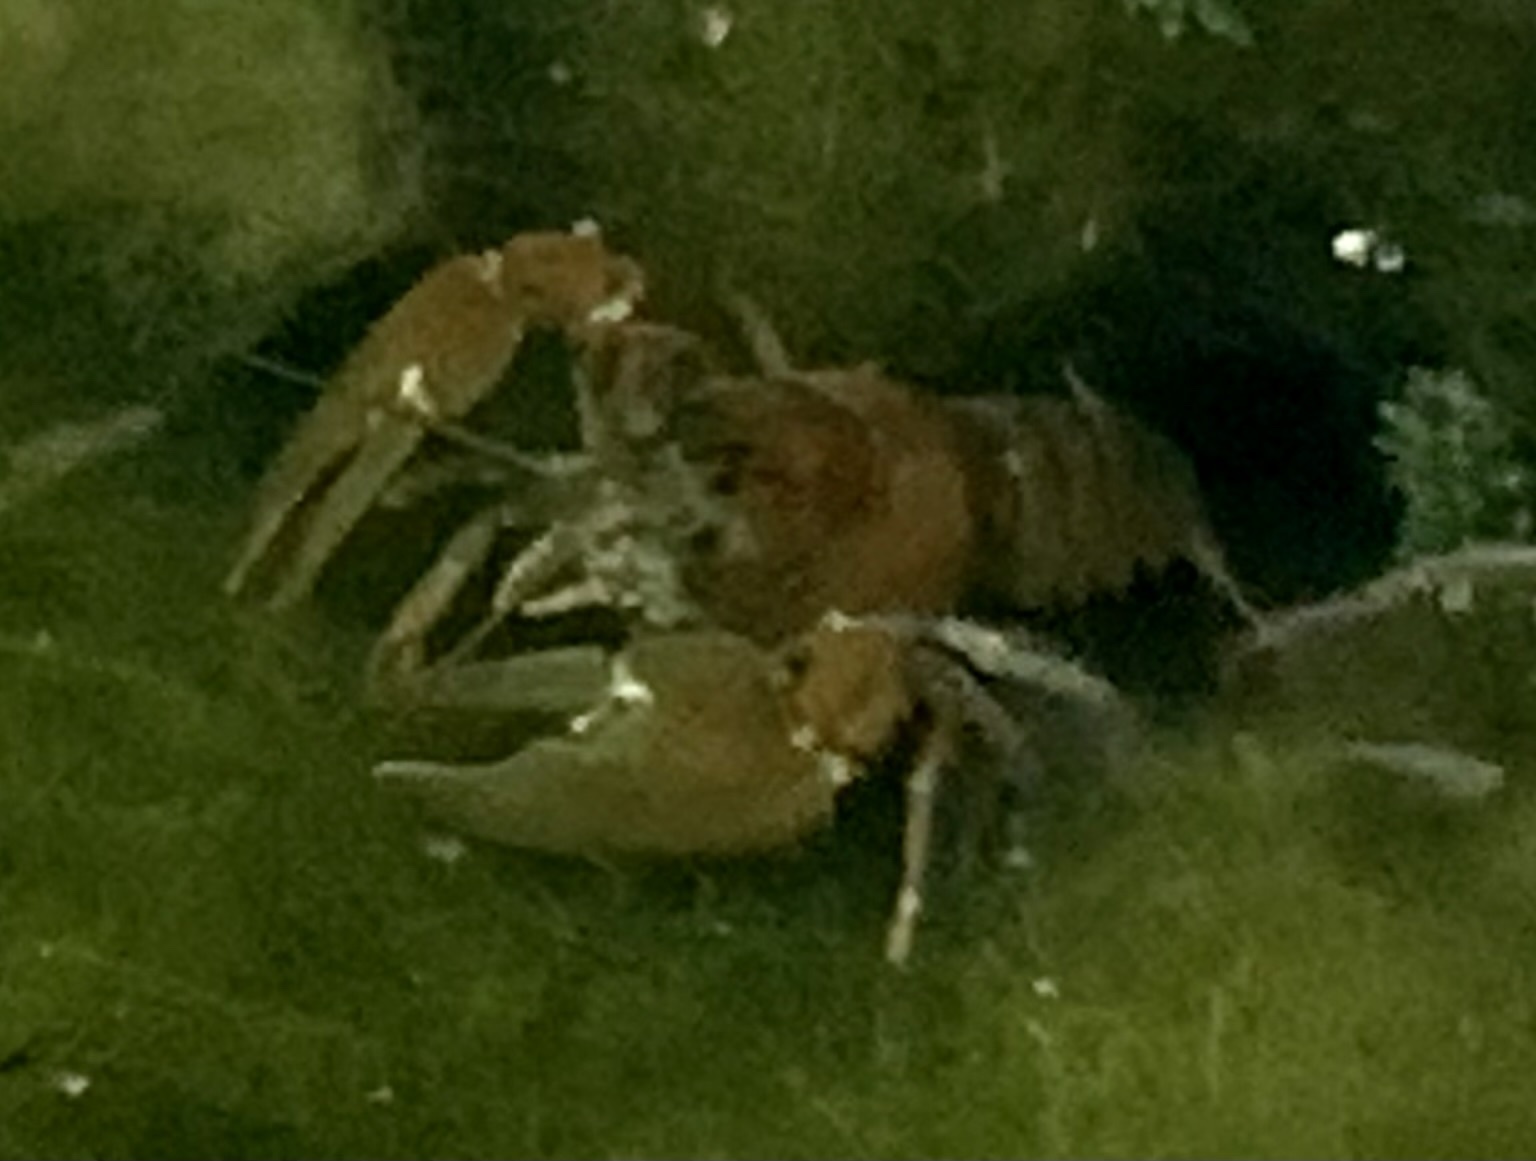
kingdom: Animalia
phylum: Arthropoda
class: Malacostraca
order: Decapoda
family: Astacidae
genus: Pacifastacus
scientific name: Pacifastacus leniusculus
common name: Signal crayfish
